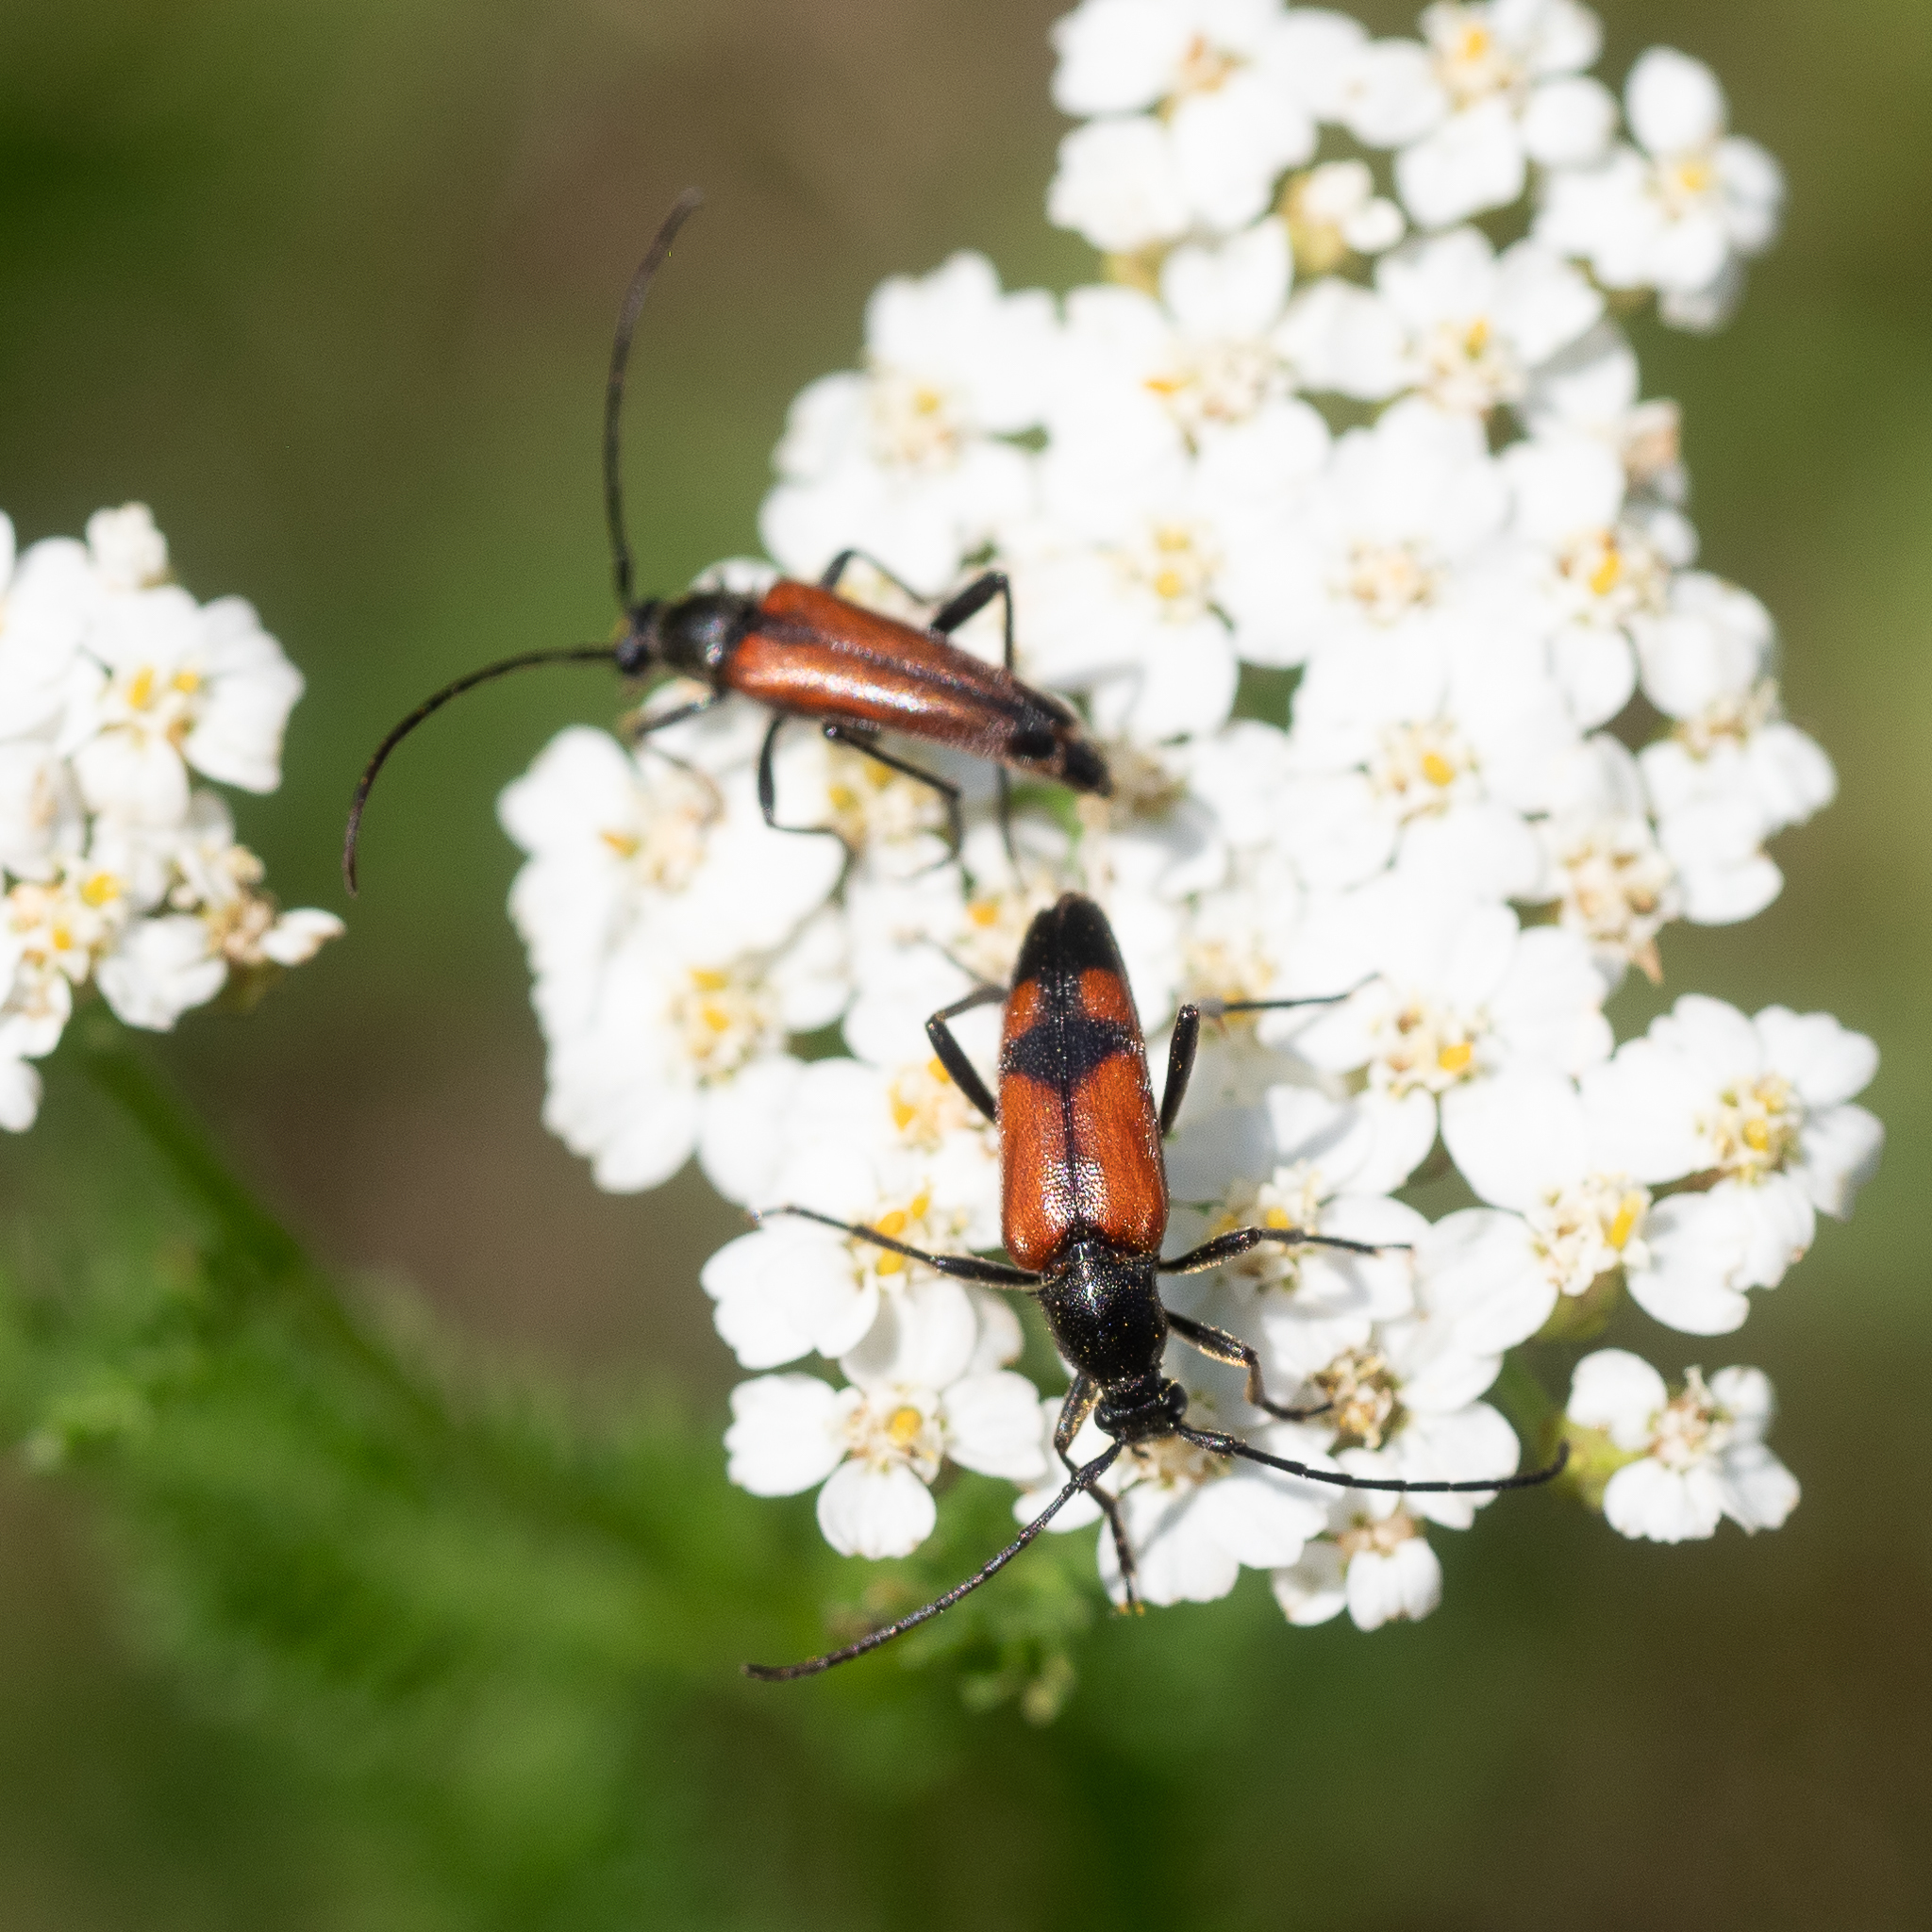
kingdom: Animalia
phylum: Arthropoda
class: Insecta
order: Coleoptera
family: Cerambycidae
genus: Stenurella
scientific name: Stenurella bifasciata
